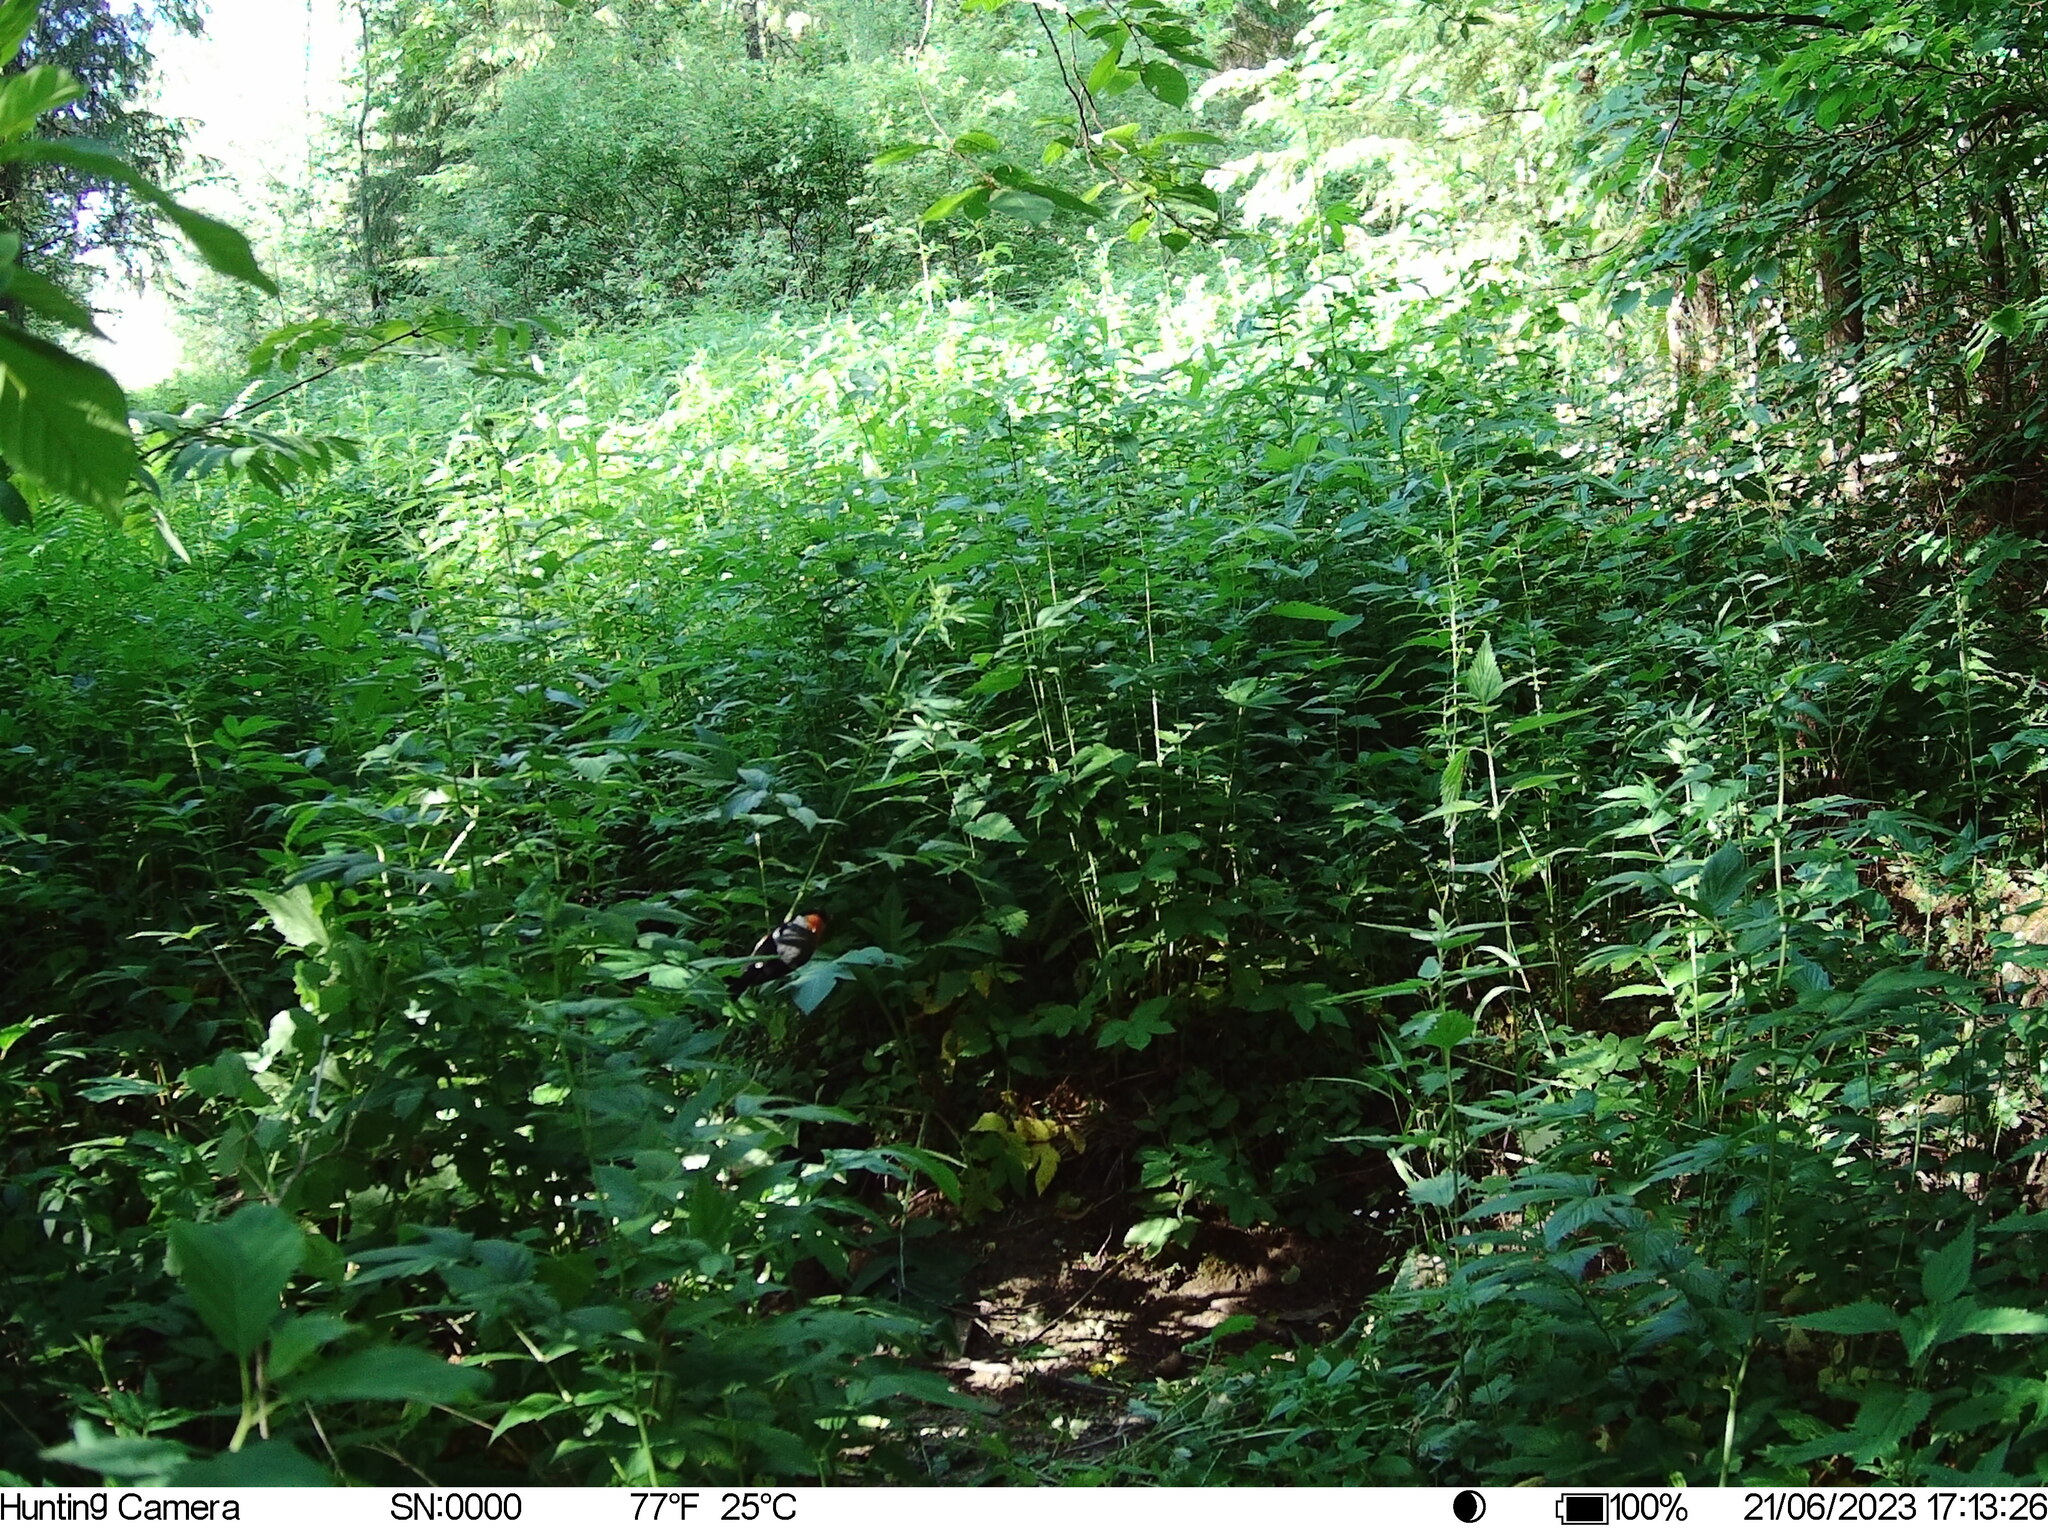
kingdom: Animalia
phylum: Chordata
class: Aves
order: Passeriformes
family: Fringillidae
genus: Pyrrhula
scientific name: Pyrrhula pyrrhula
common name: Eurasian bullfinch
